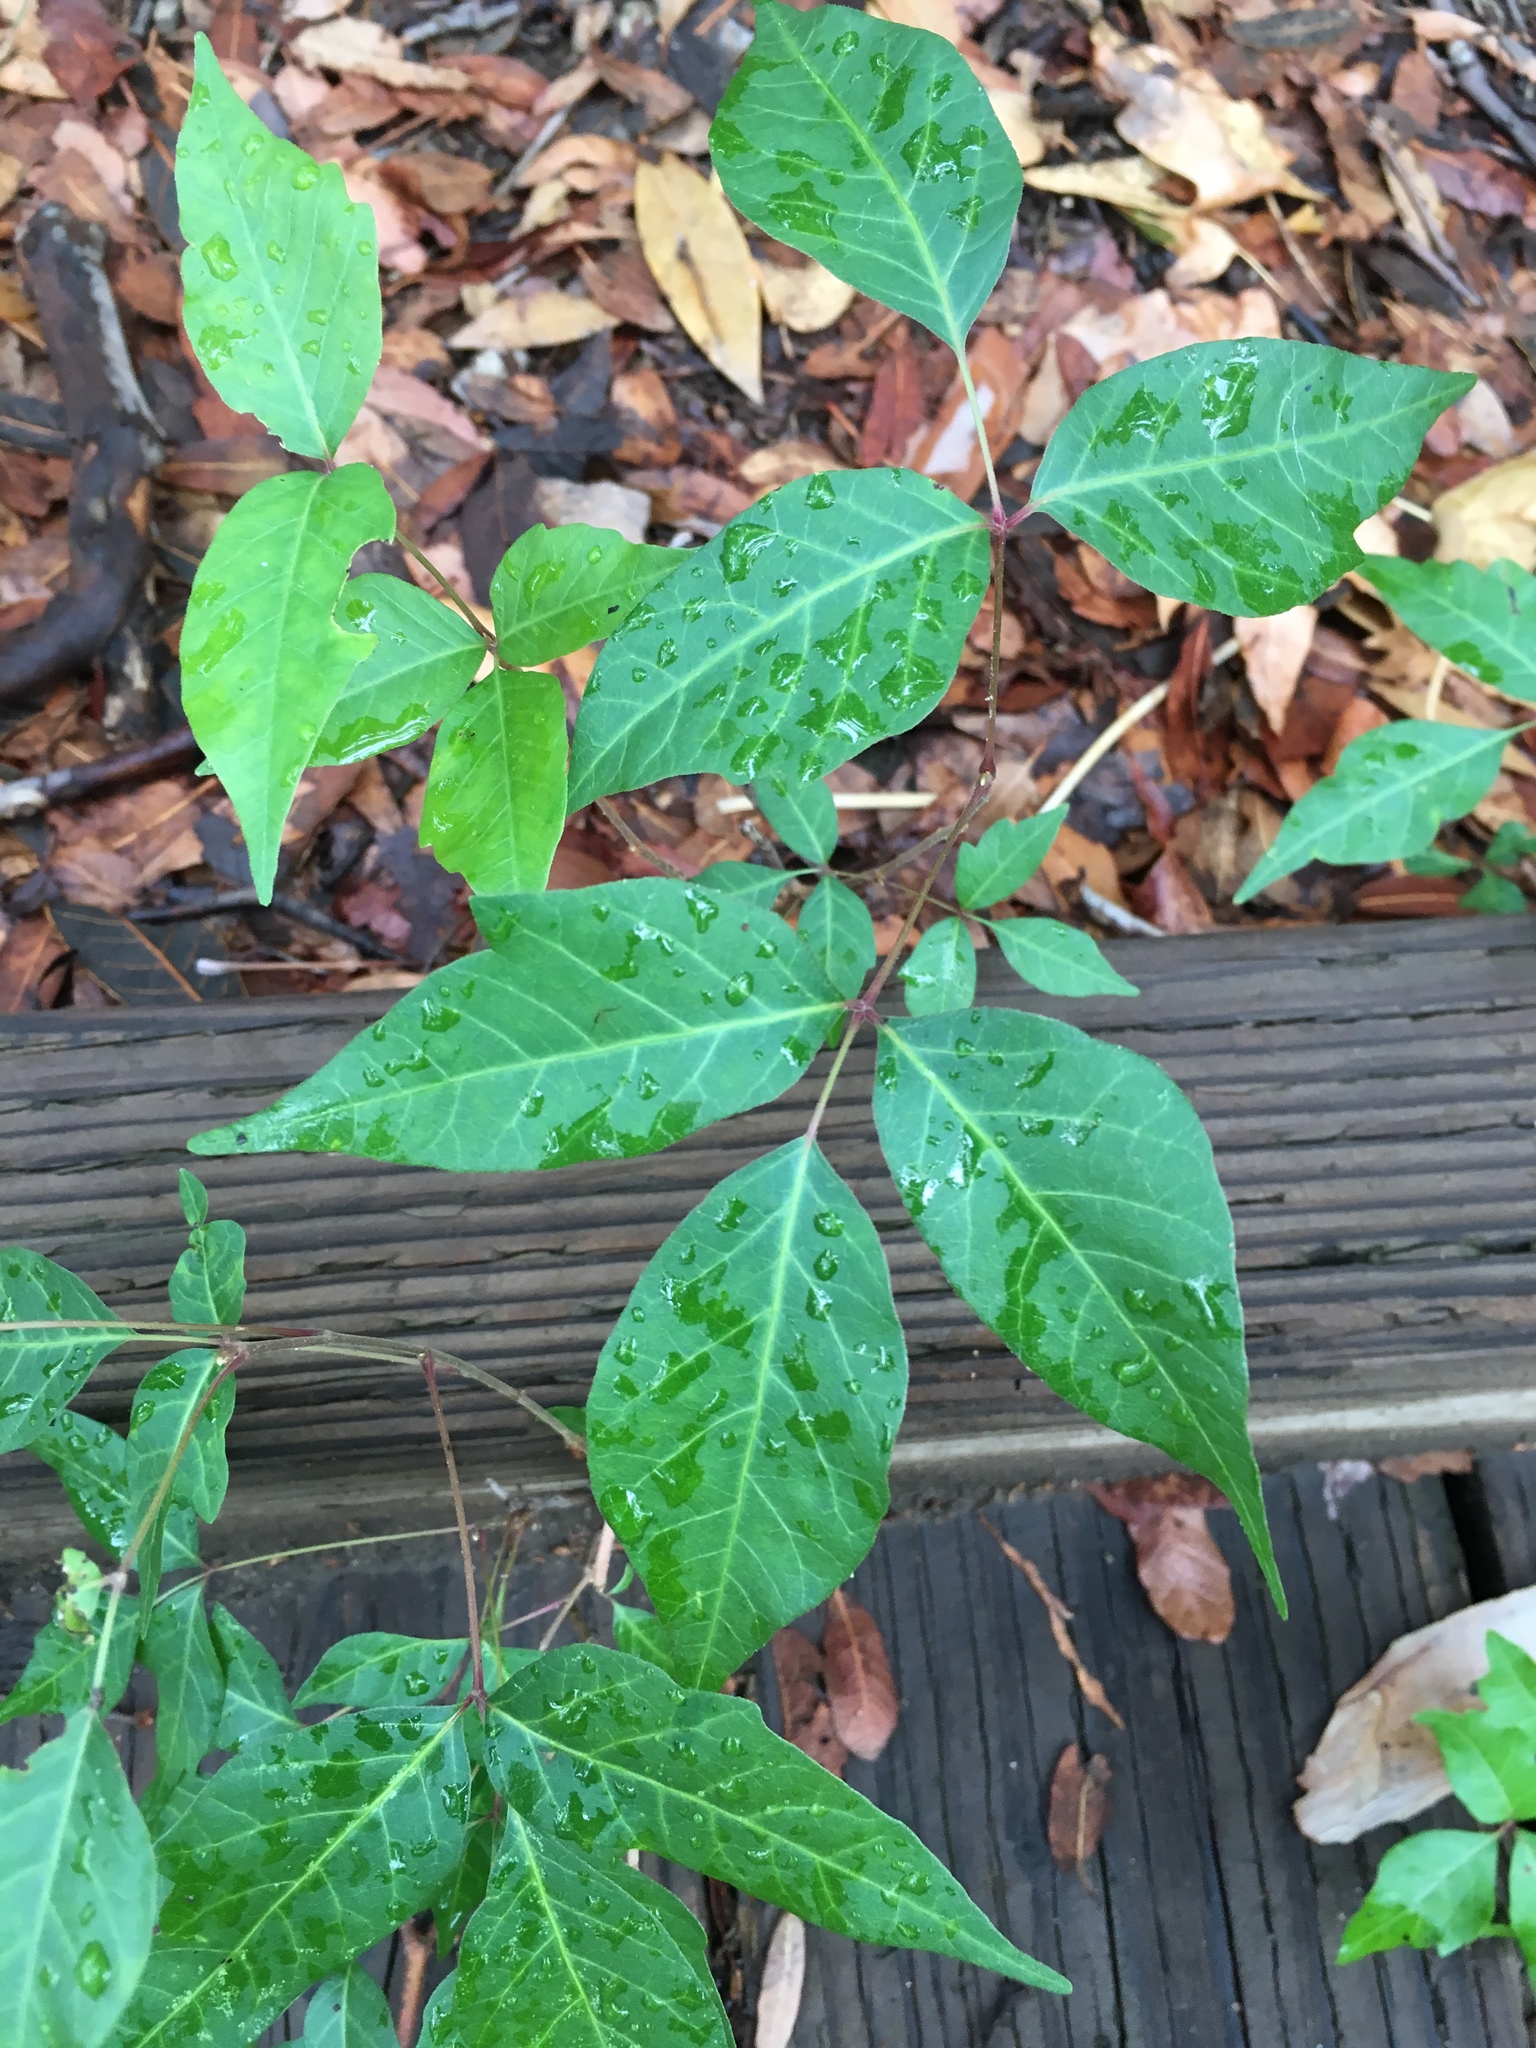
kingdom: Plantae
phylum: Tracheophyta
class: Magnoliopsida
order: Sapindales
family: Anacardiaceae
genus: Toxicodendron
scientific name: Toxicodendron radicans
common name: Poison ivy
